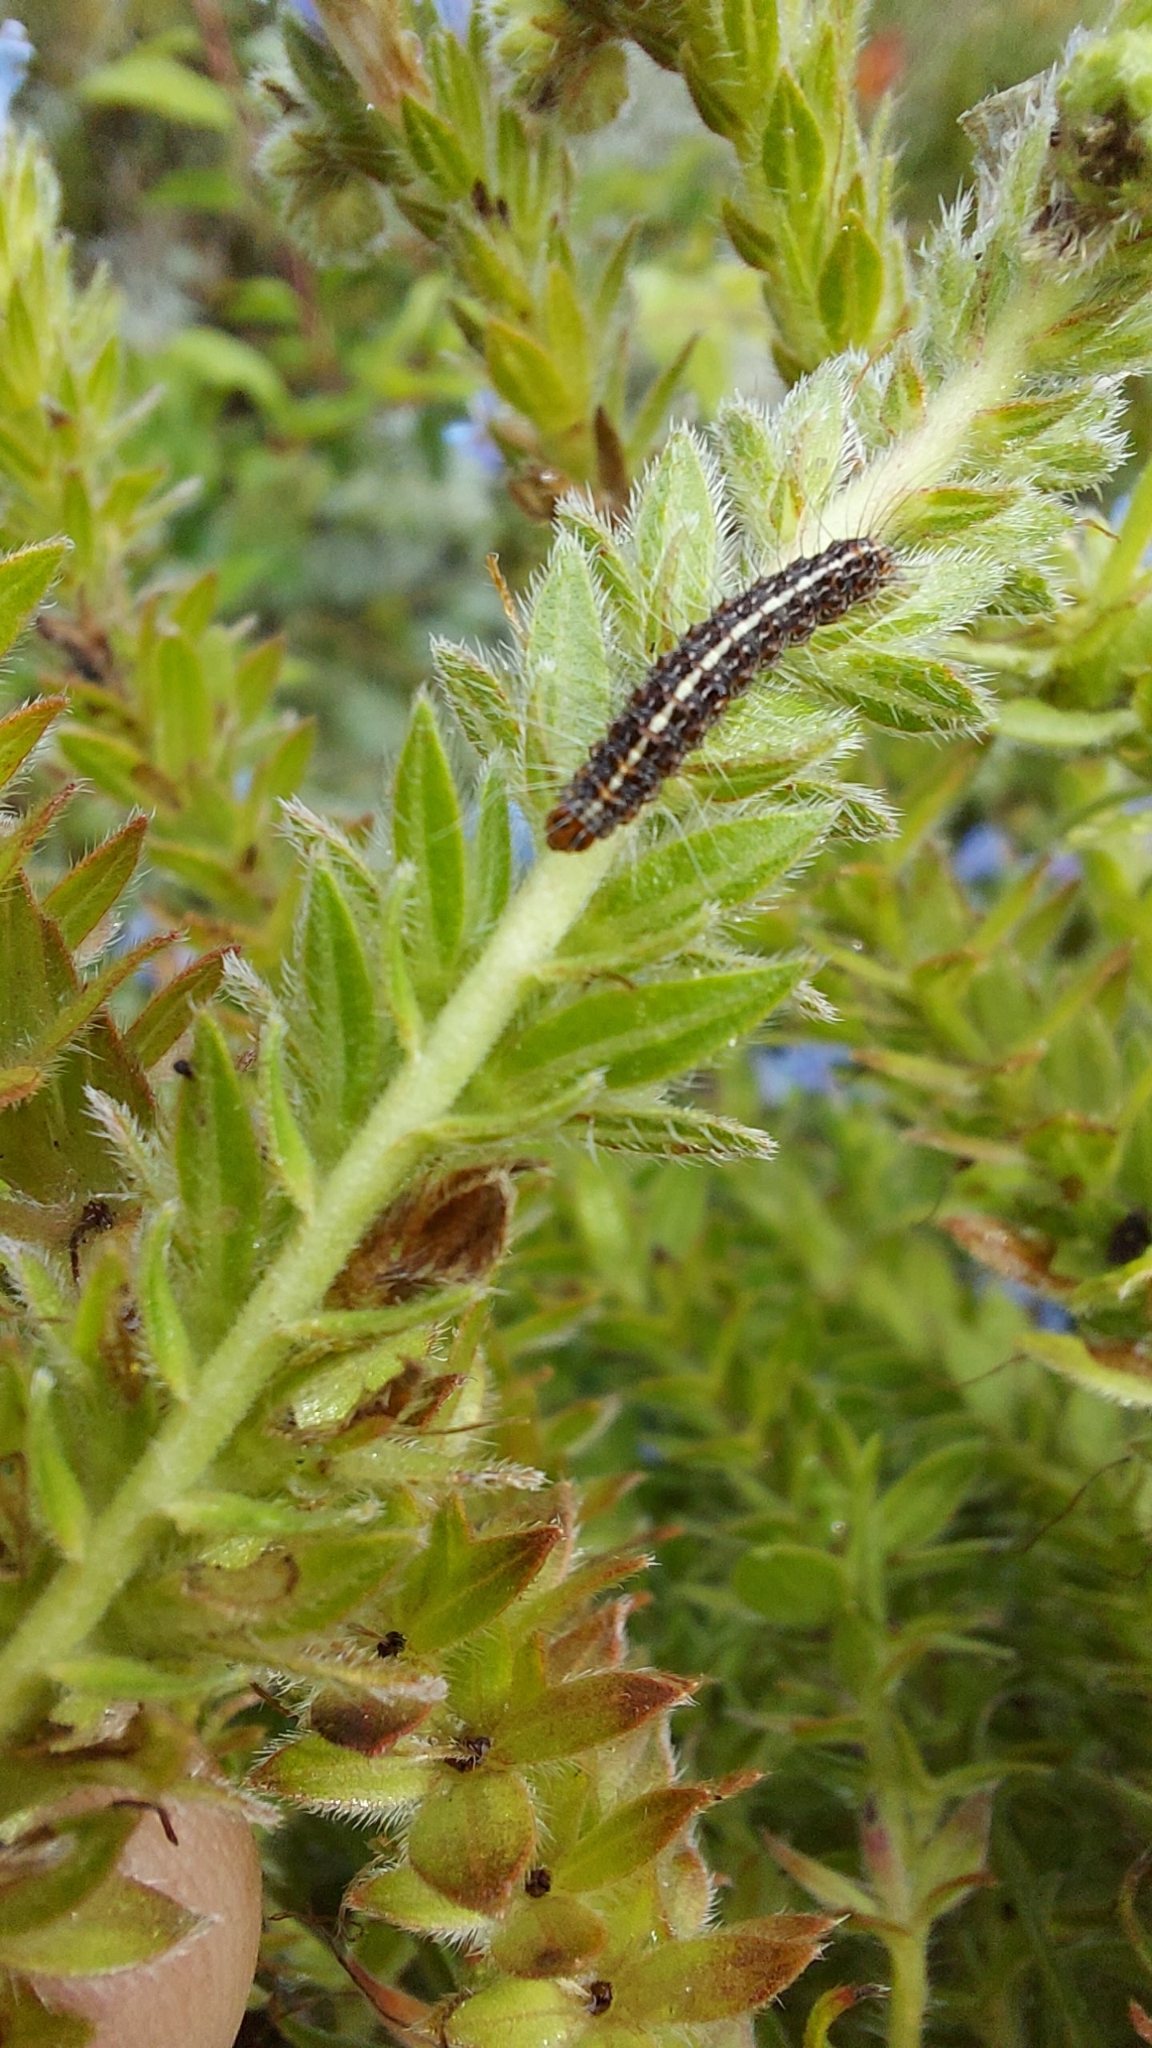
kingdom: Animalia
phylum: Arthropoda
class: Insecta
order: Lepidoptera
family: Erebidae
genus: Utetheisa
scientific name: Utetheisa pulchelloides
